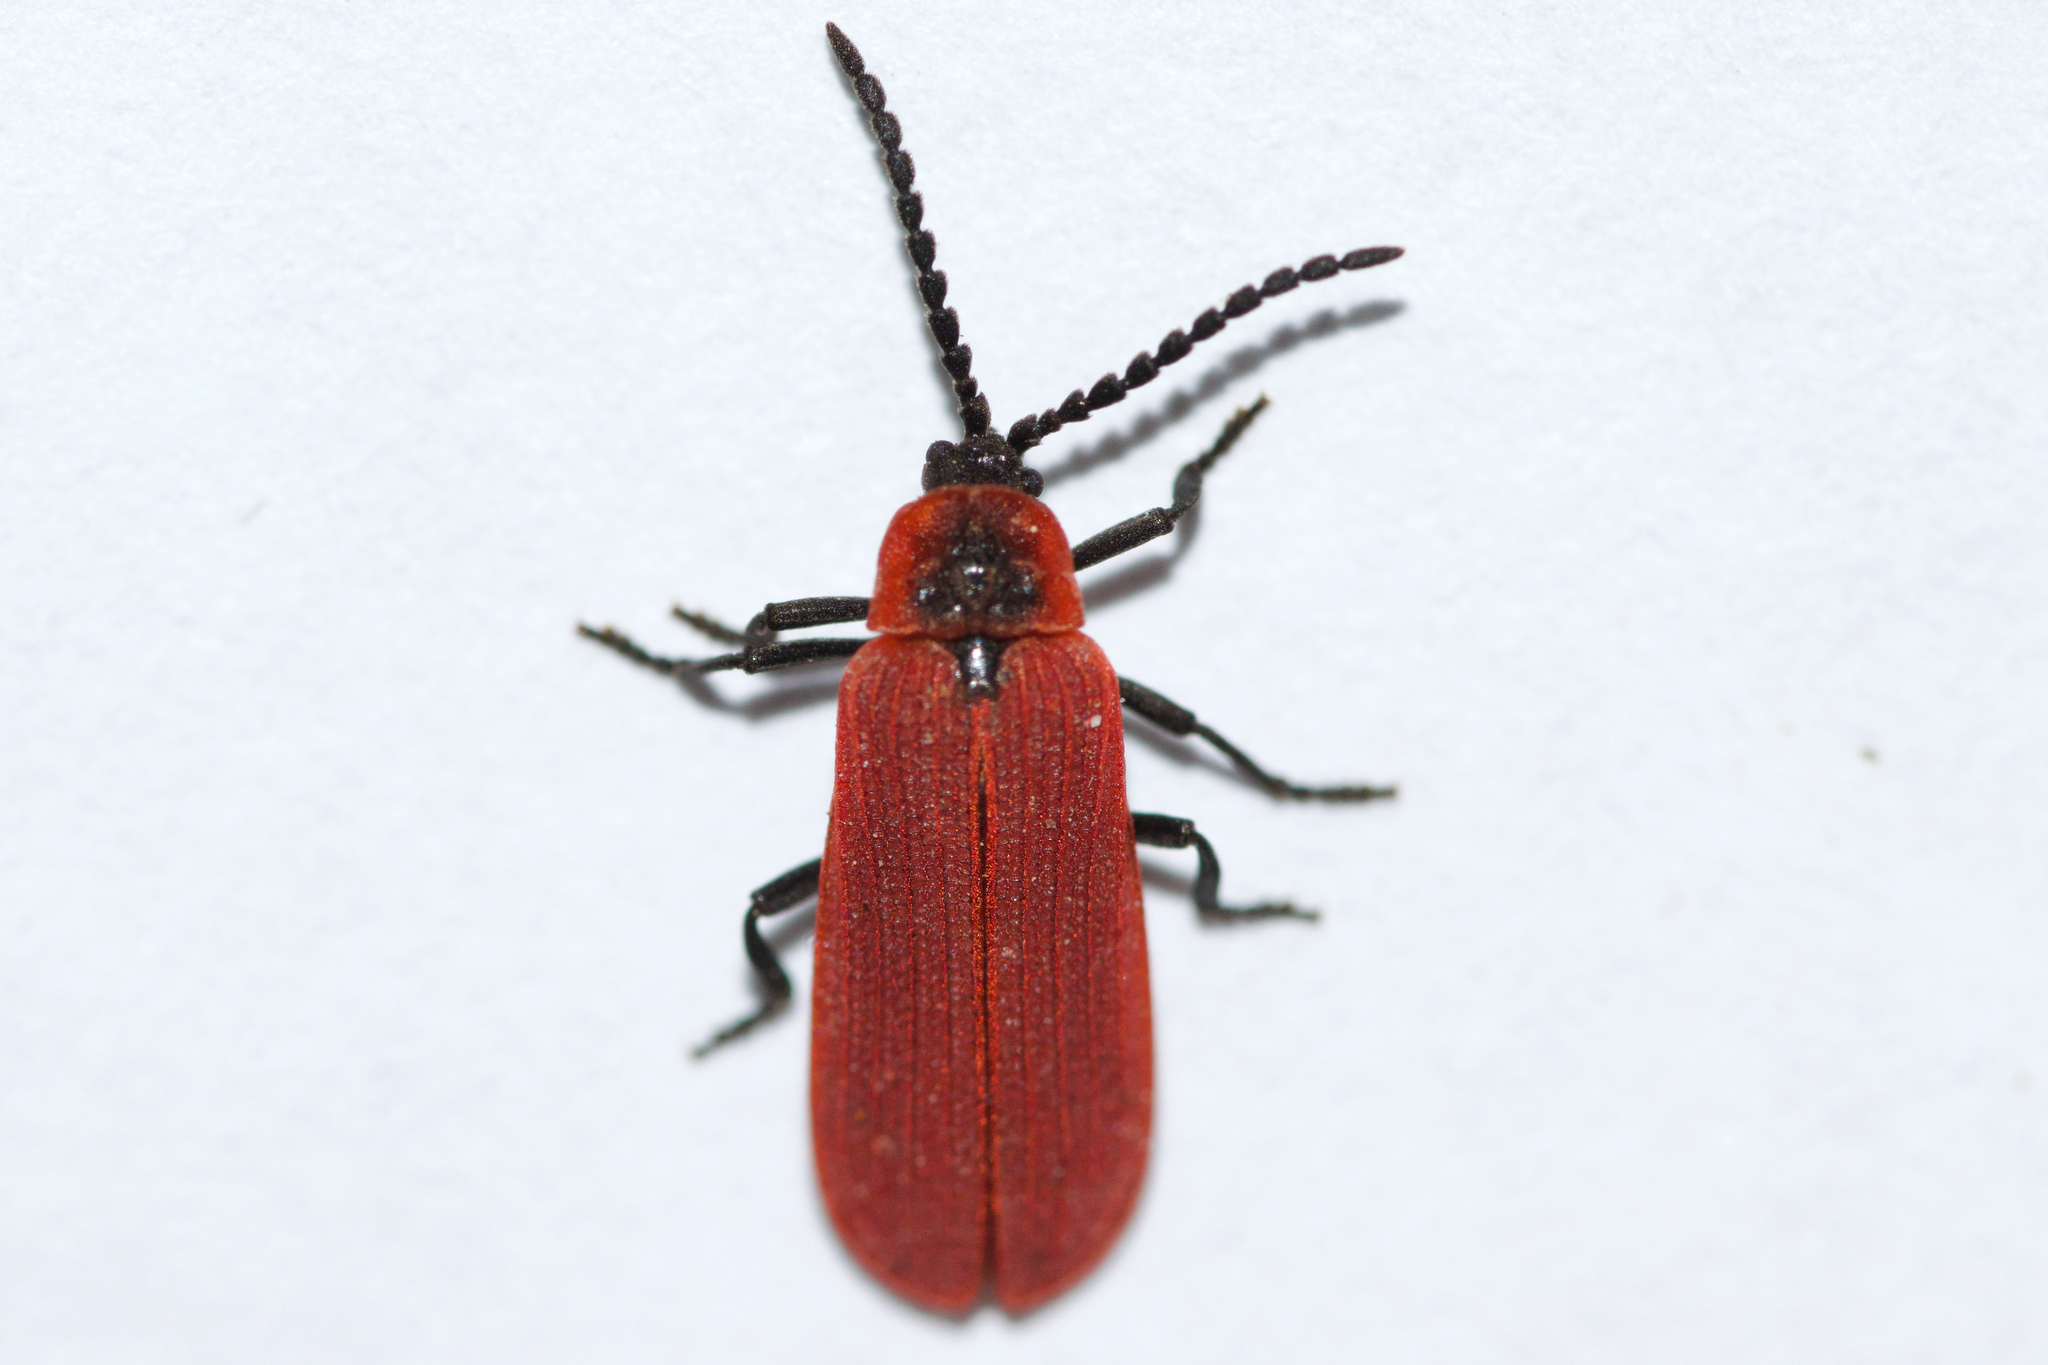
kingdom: Animalia
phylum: Arthropoda
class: Insecta
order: Coleoptera
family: Lycidae
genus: Dictyoptera
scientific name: Dictyoptera aurora
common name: Golden net-winged beetle
